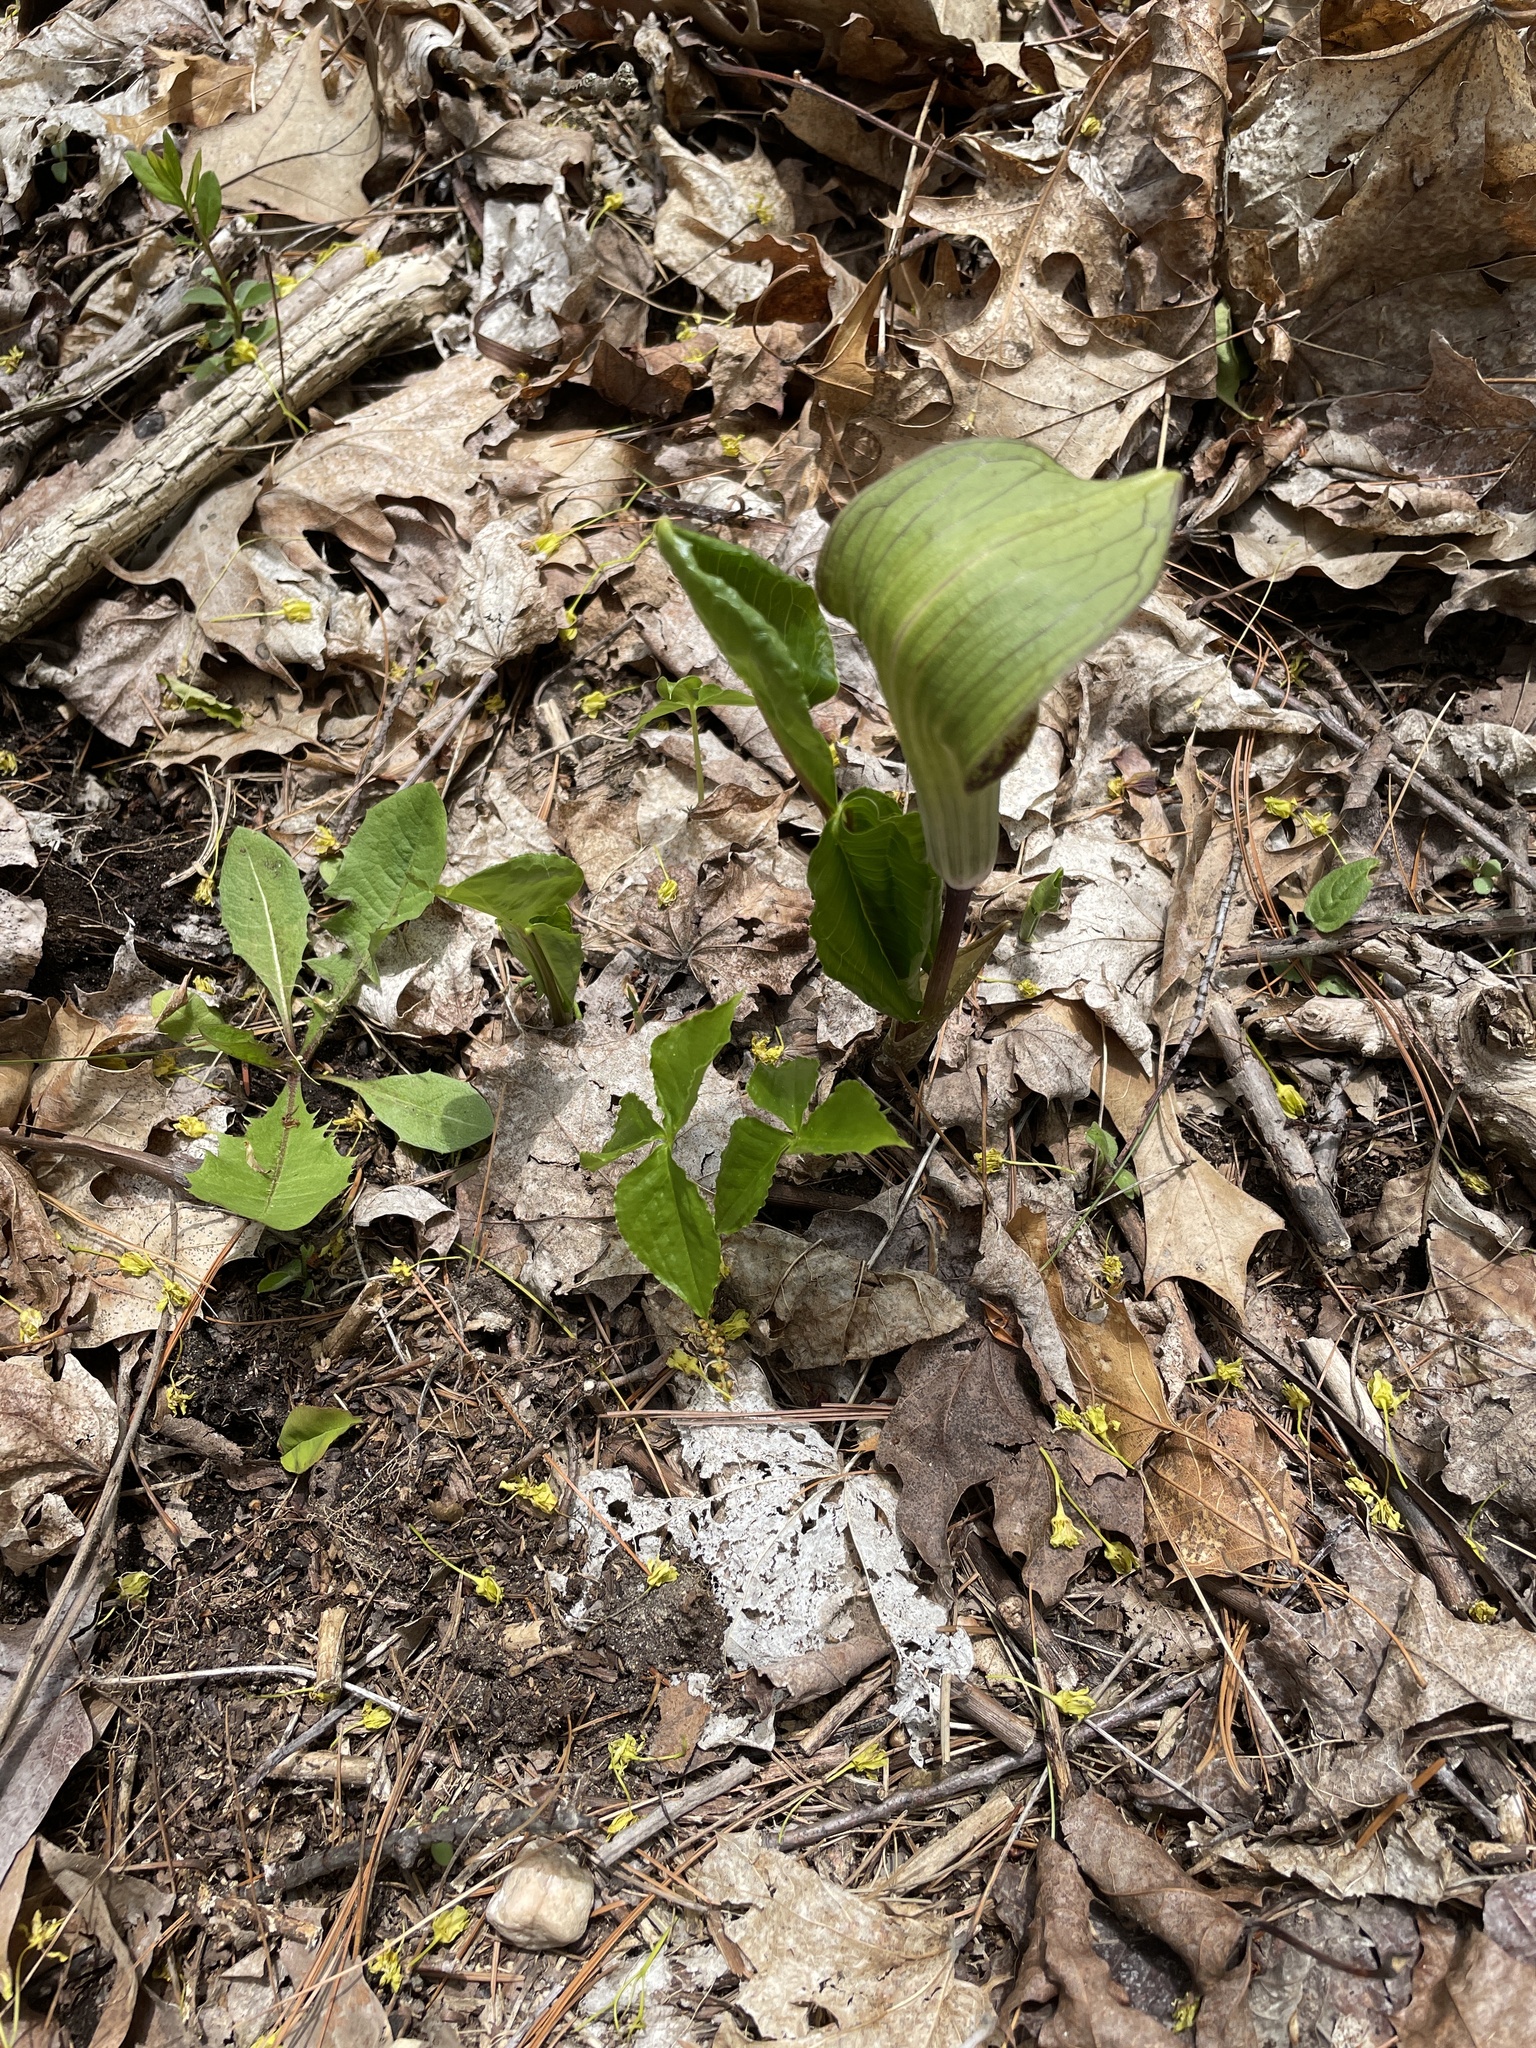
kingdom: Plantae
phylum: Tracheophyta
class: Liliopsida
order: Alismatales
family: Araceae
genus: Arisaema
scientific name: Arisaema triphyllum
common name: Jack-in-the-pulpit
